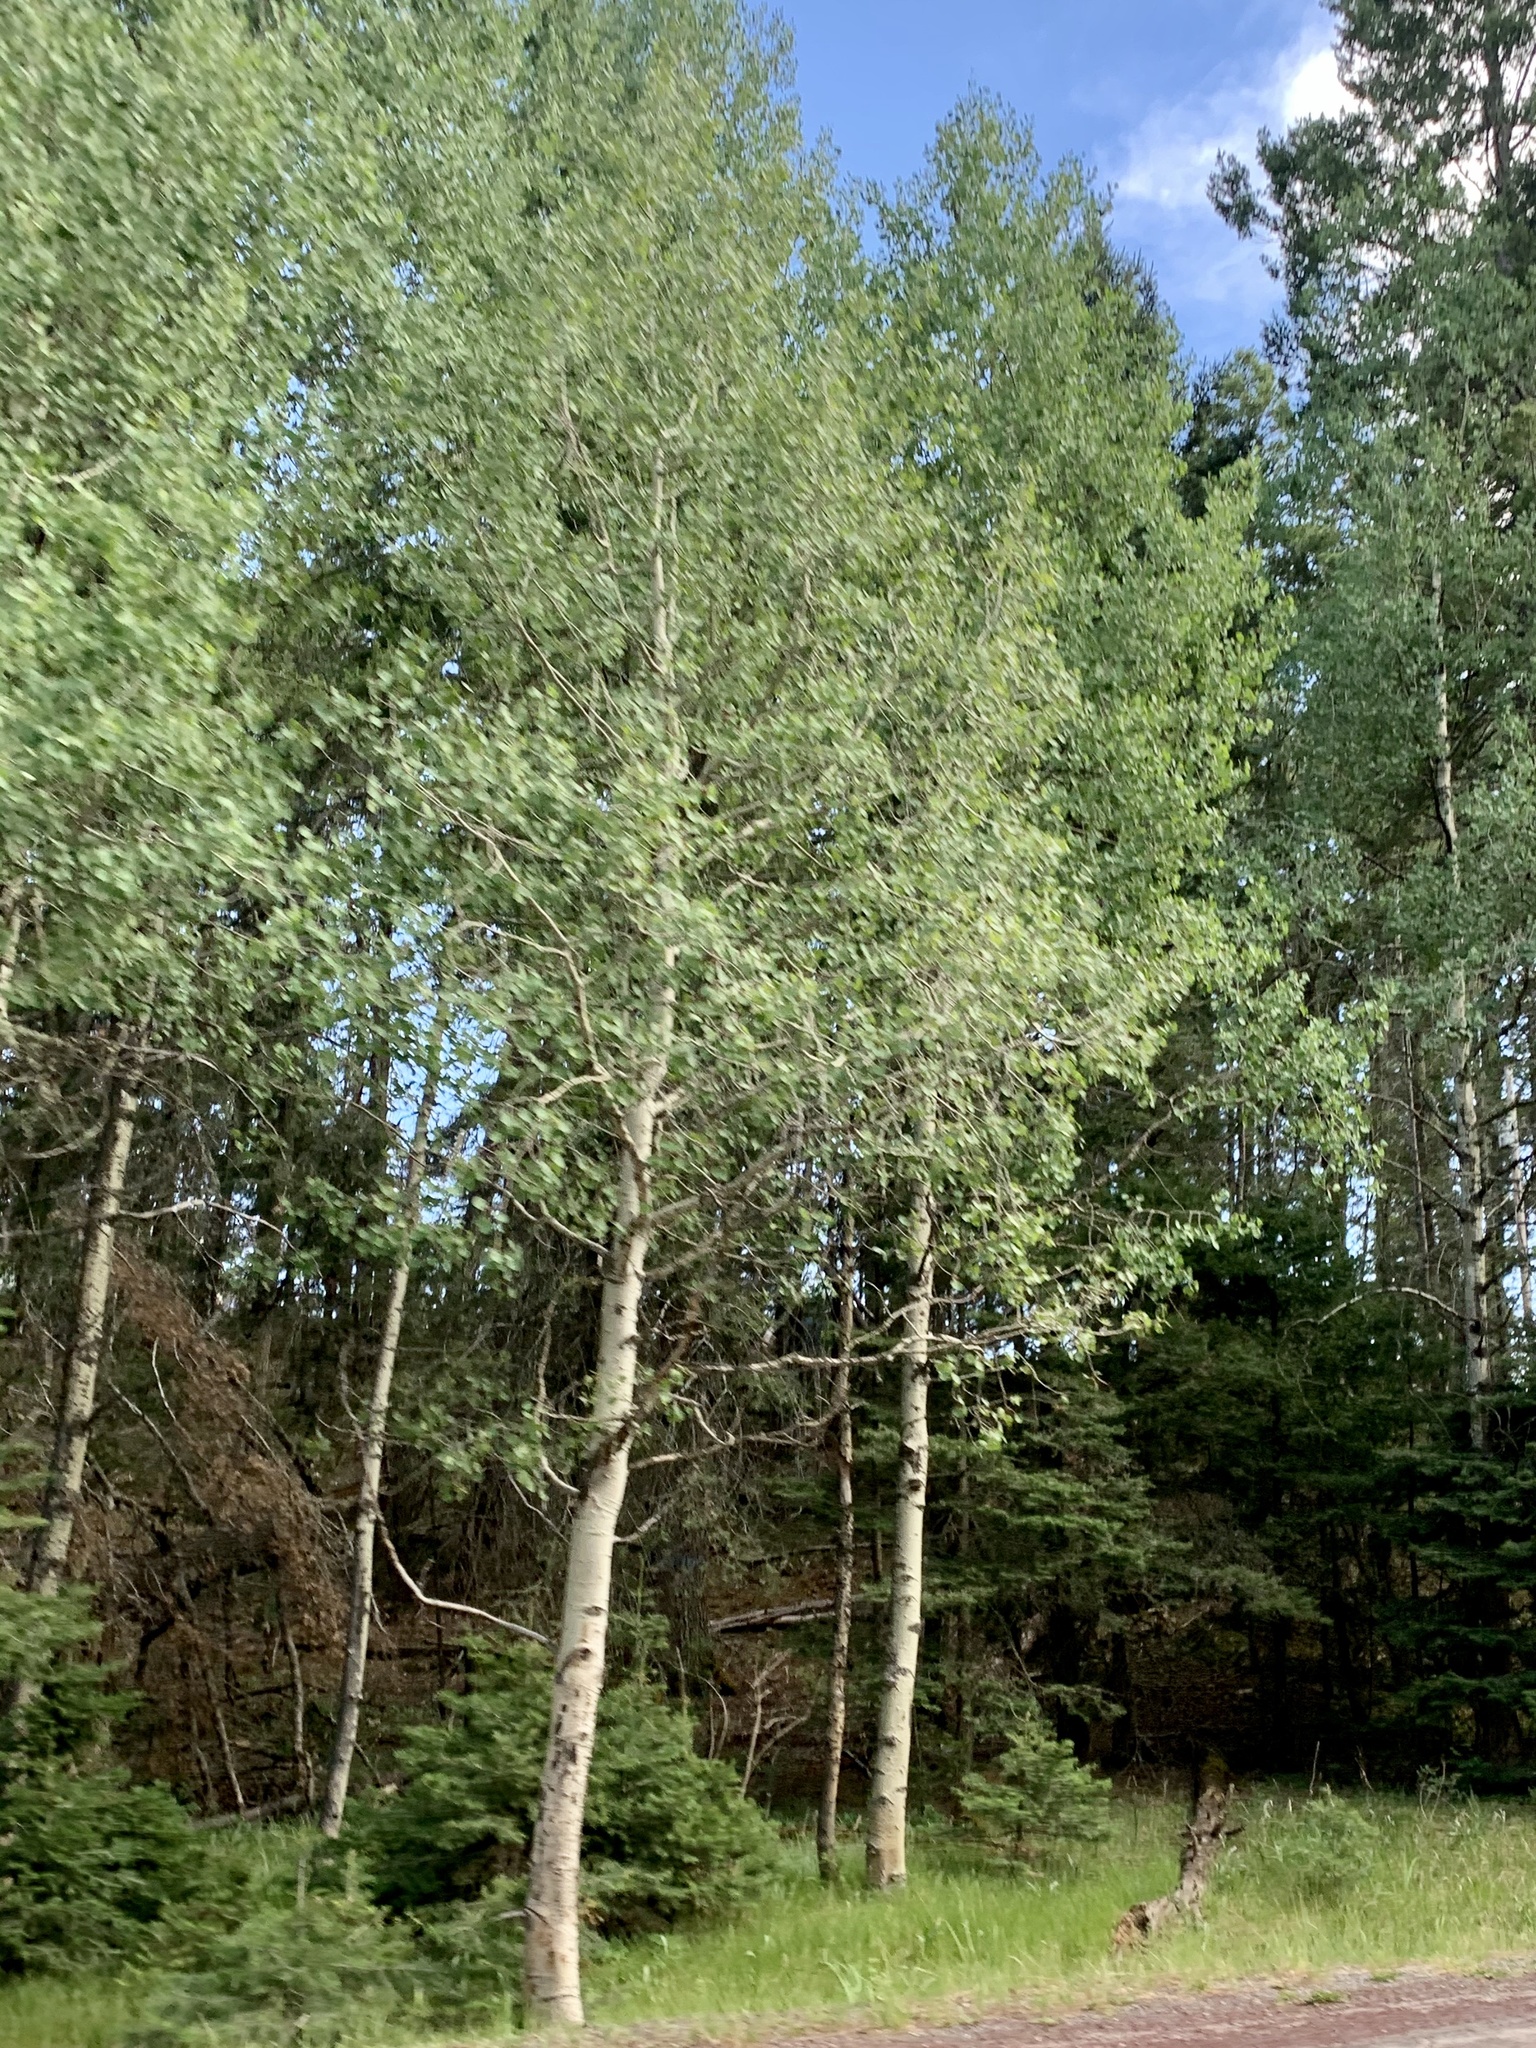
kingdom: Plantae
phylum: Tracheophyta
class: Magnoliopsida
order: Malpighiales
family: Salicaceae
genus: Populus
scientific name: Populus tremuloides
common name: Quaking aspen
